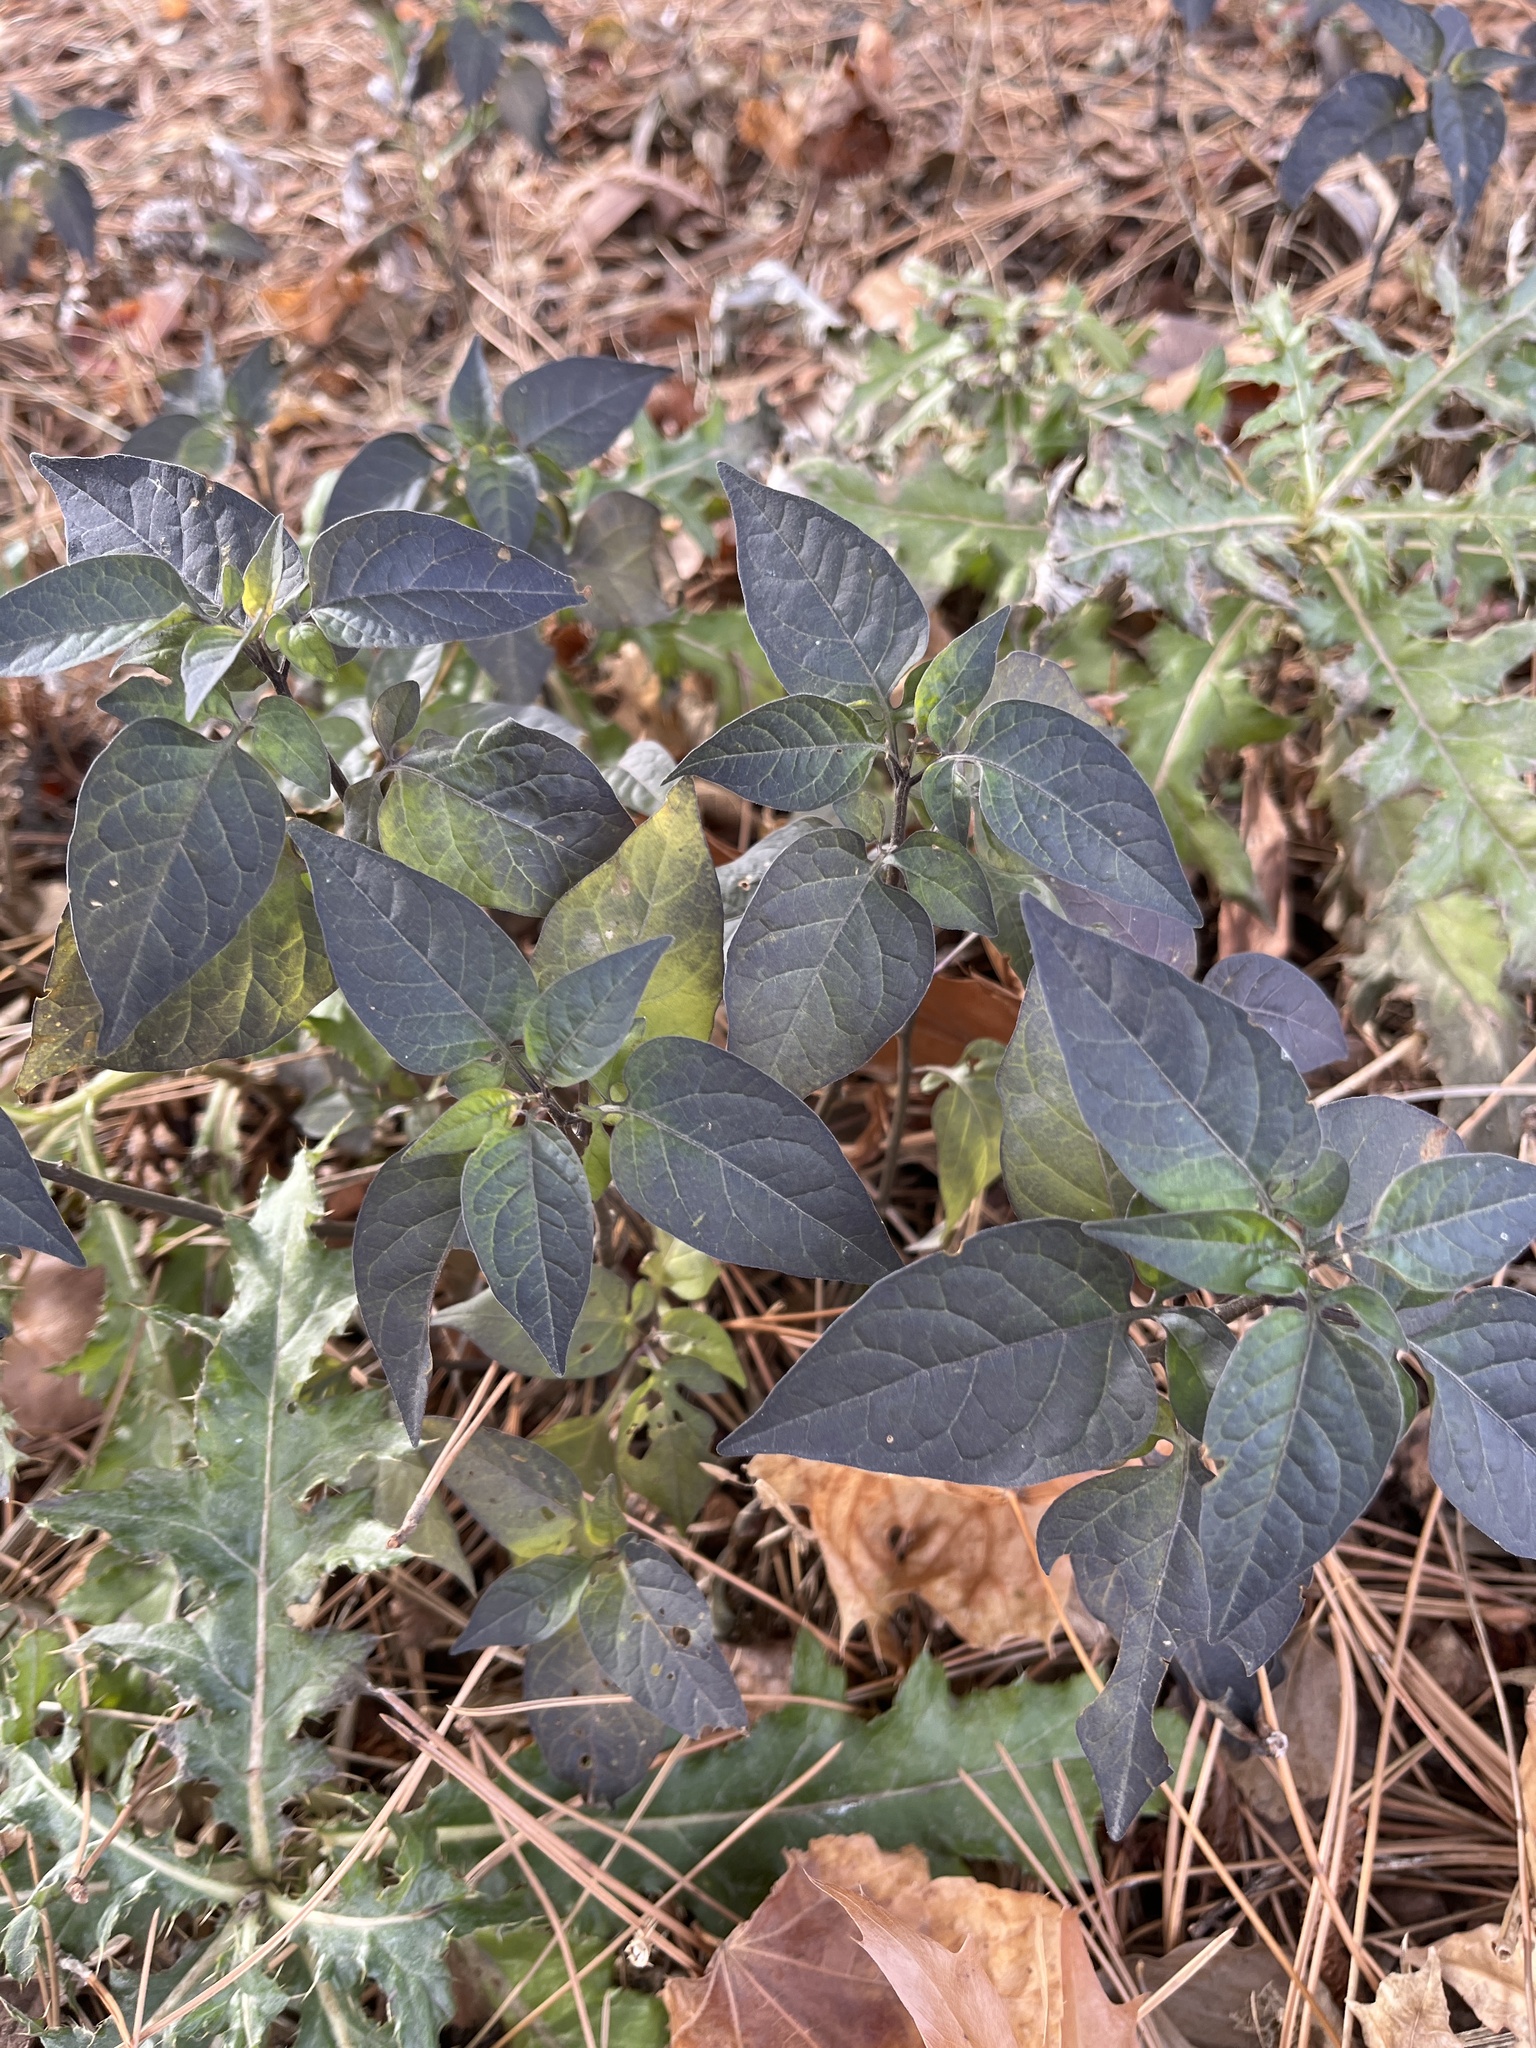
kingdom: Plantae
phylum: Tracheophyta
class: Magnoliopsida
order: Solanales
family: Solanaceae
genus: Solanum
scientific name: Solanum dulcamara
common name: Climbing nightshade
